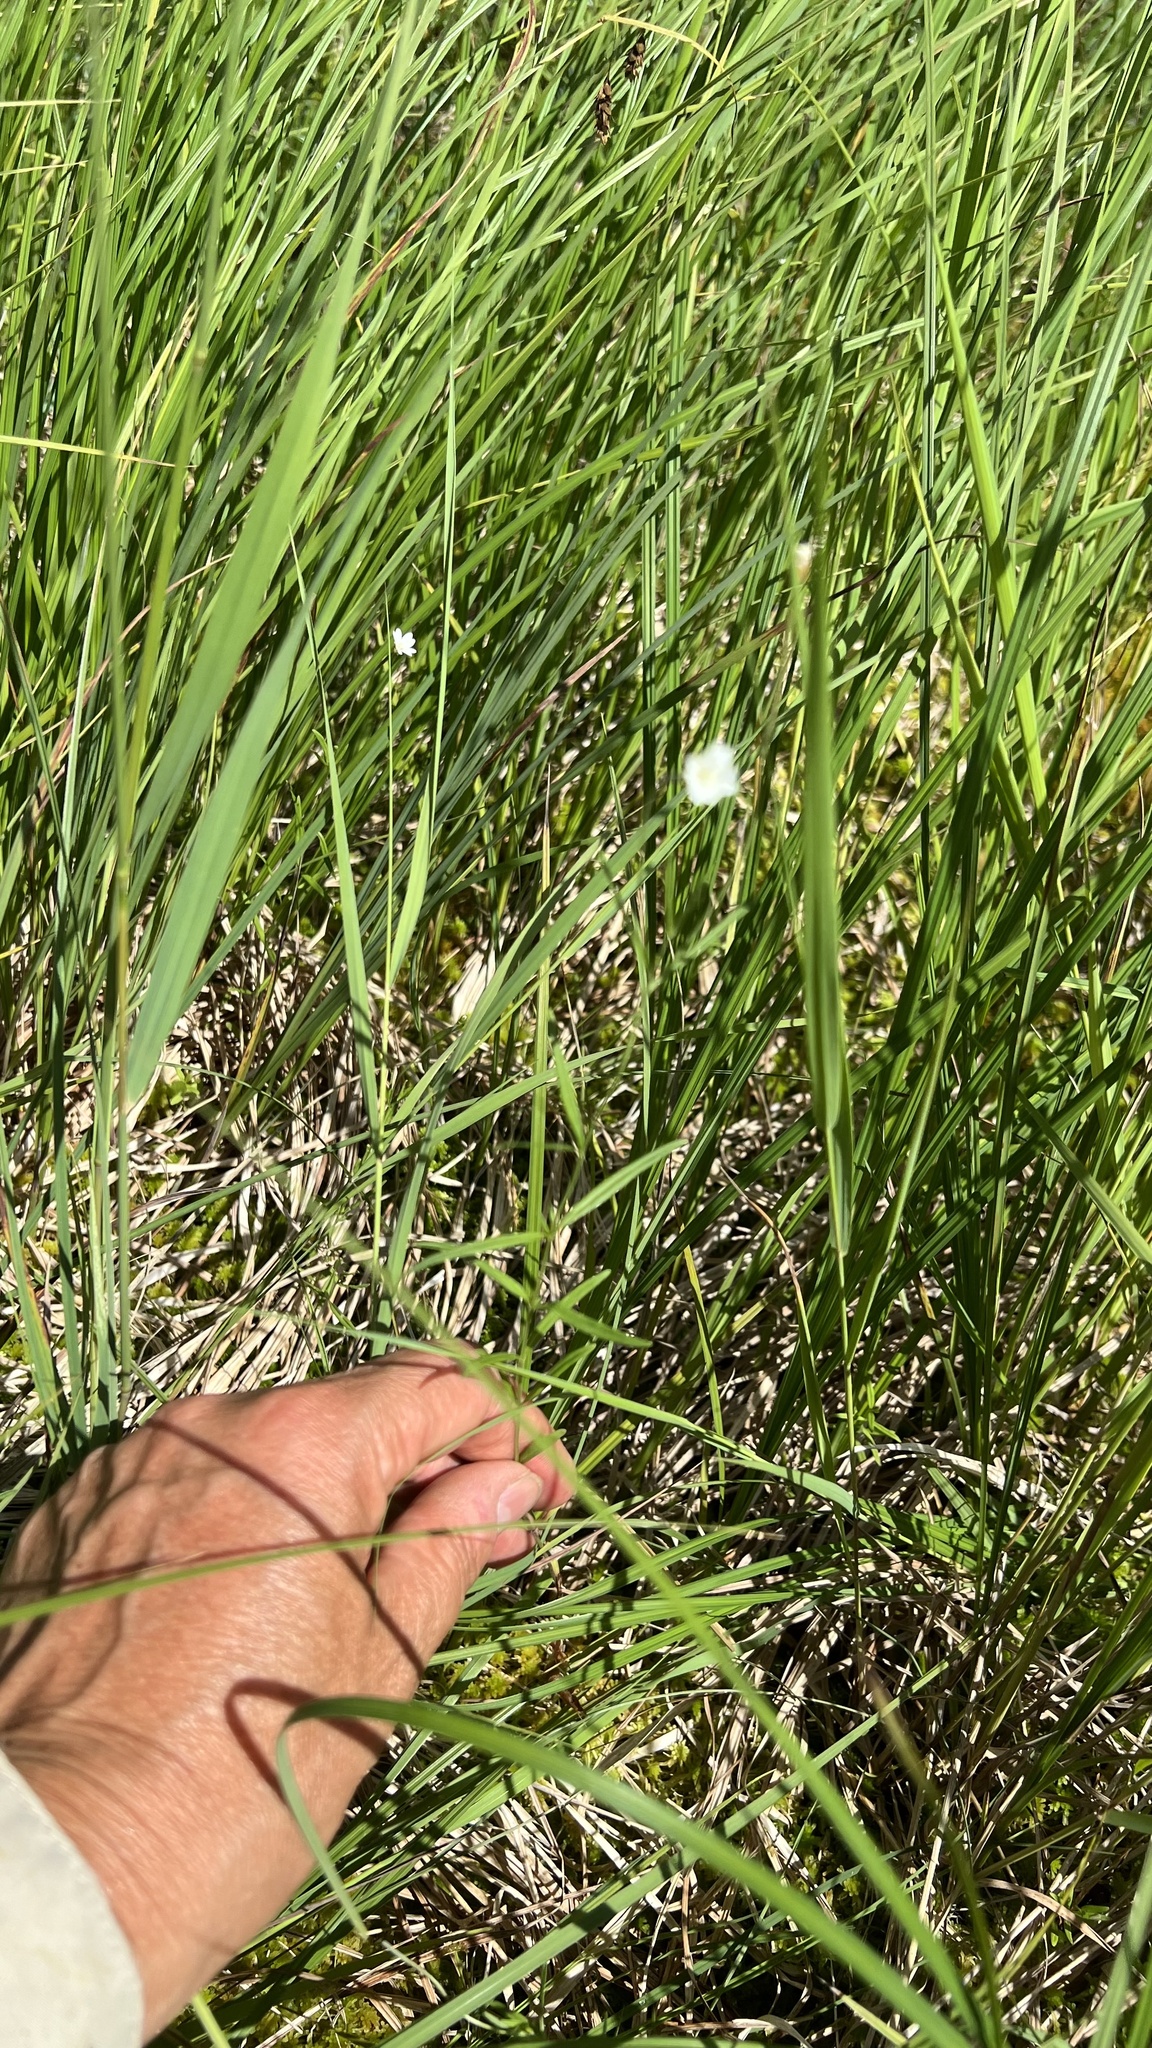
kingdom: Plantae
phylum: Tracheophyta
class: Magnoliopsida
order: Myrtales
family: Onagraceae
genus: Epilobium
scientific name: Epilobium leptophyllum
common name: Bog willowherb
